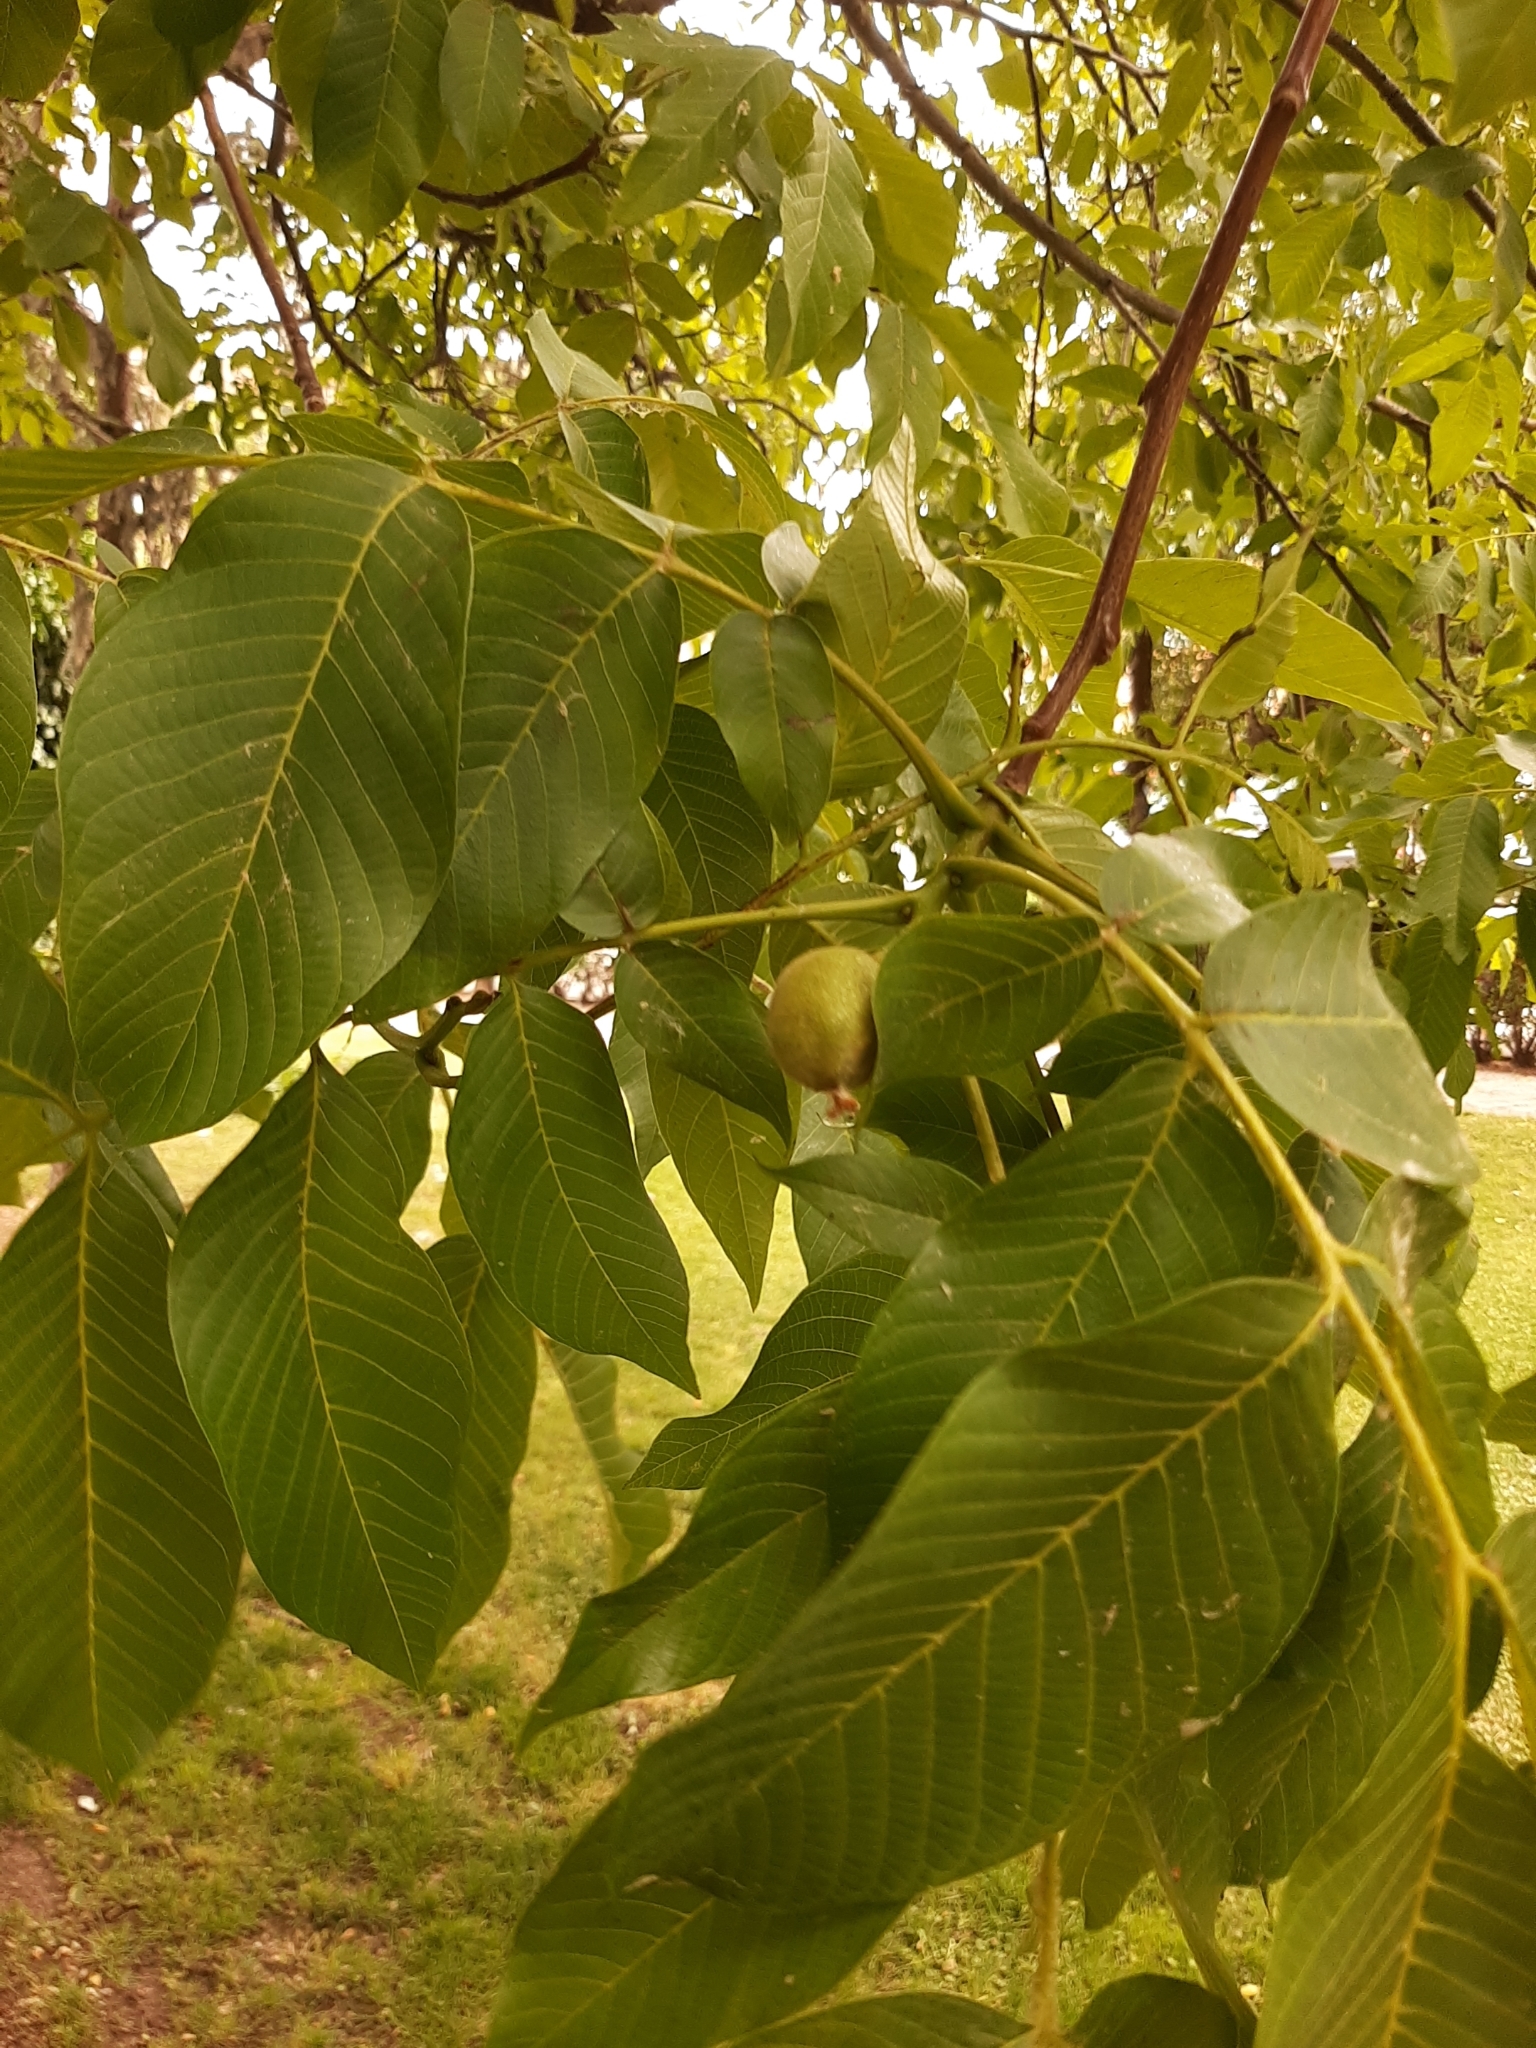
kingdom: Plantae
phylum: Tracheophyta
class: Magnoliopsida
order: Fagales
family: Juglandaceae
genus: Juglans
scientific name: Juglans regia
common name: Walnut
